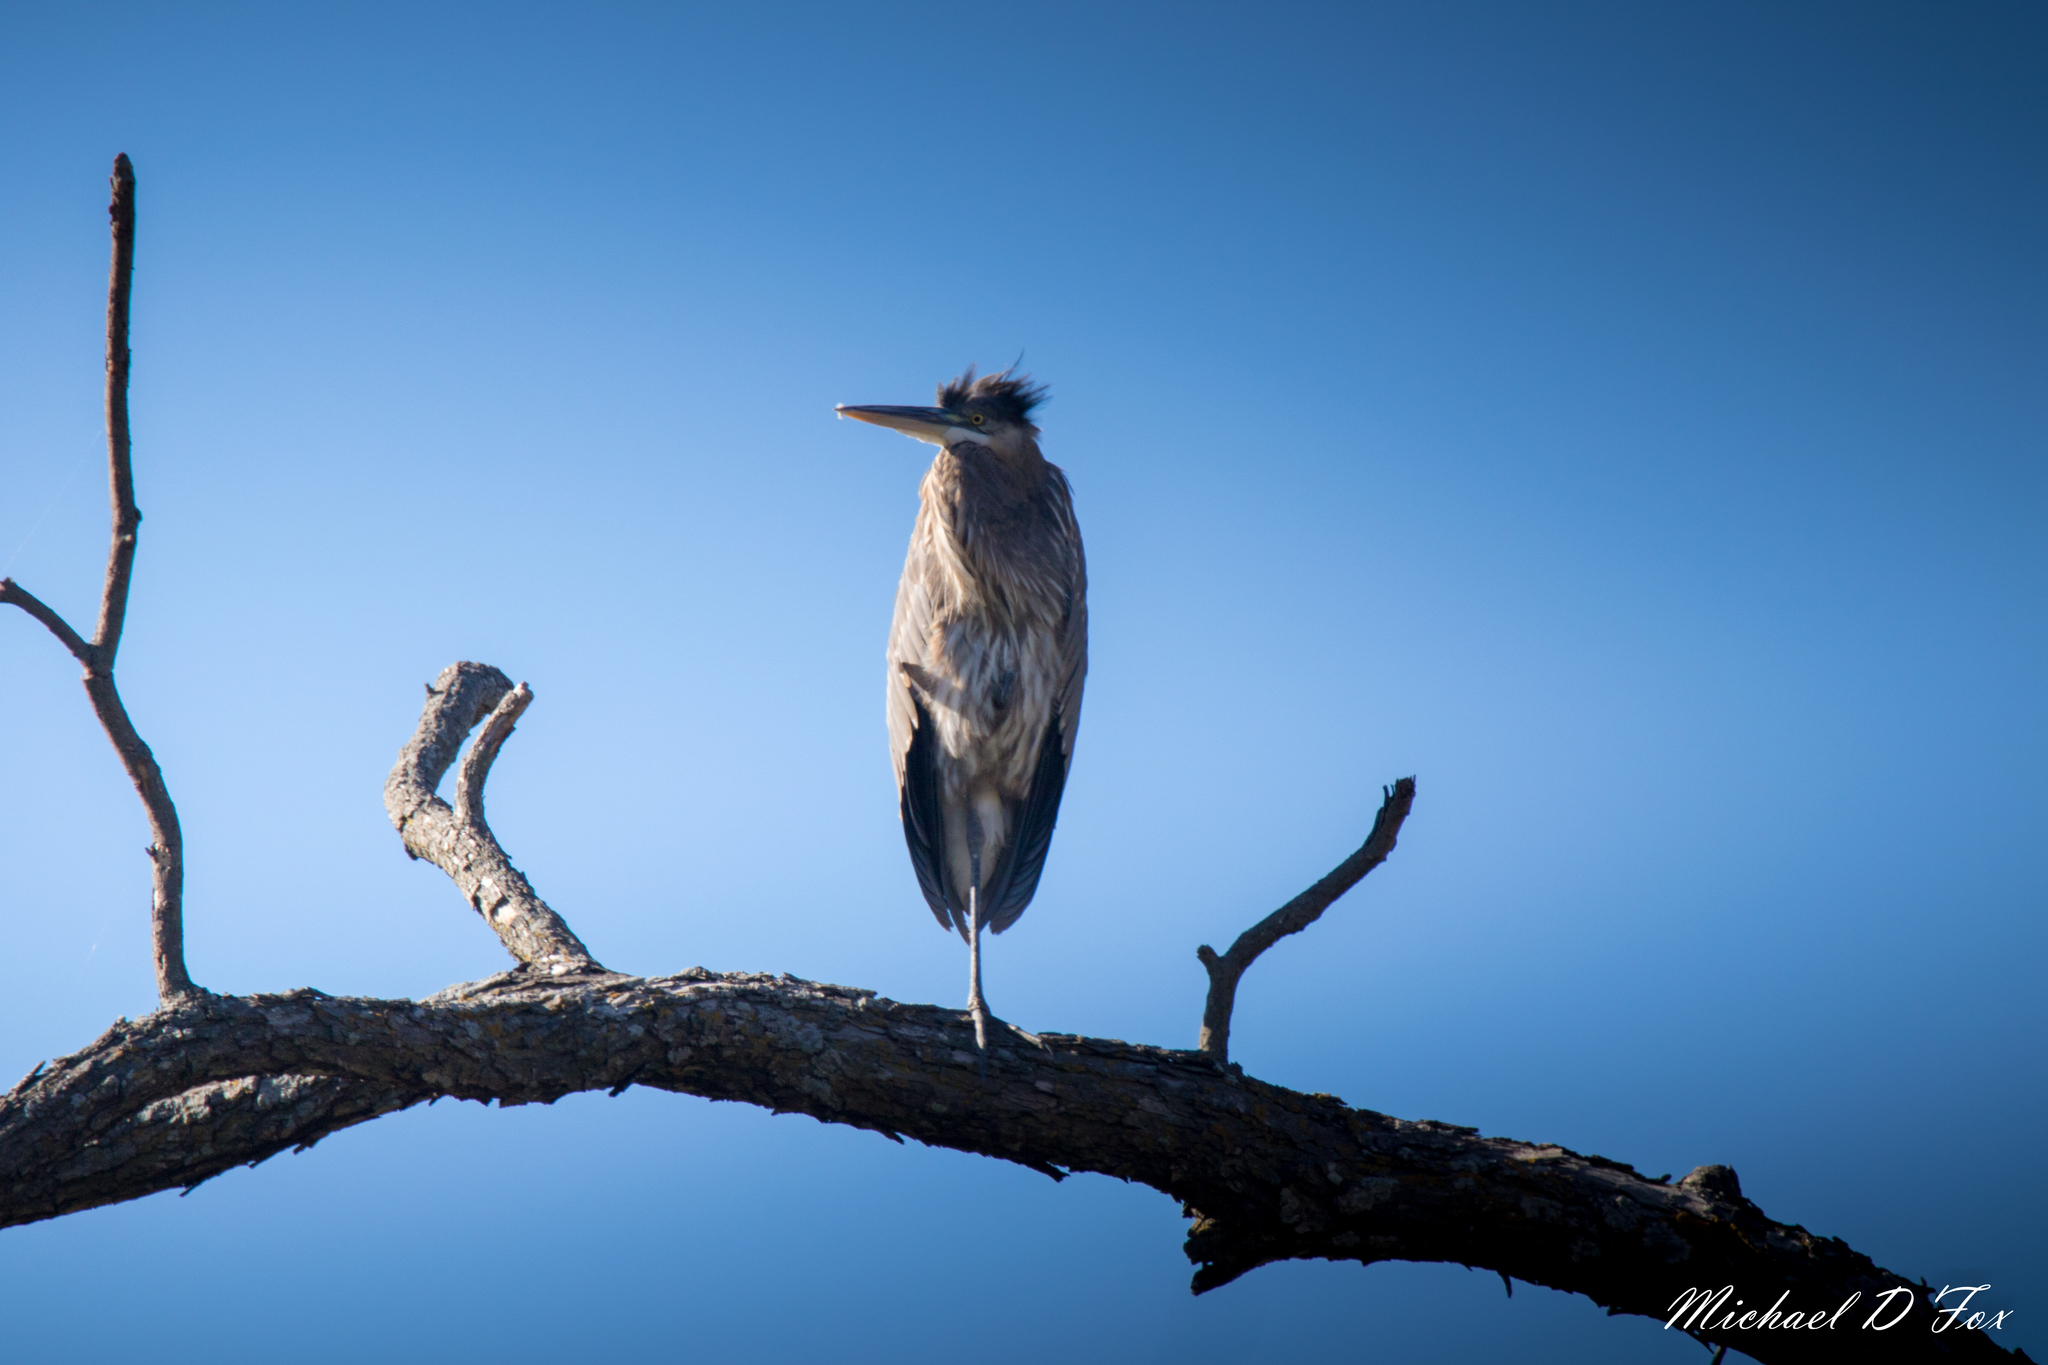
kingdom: Animalia
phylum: Chordata
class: Aves
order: Pelecaniformes
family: Ardeidae
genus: Ardea
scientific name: Ardea herodias
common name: Great blue heron
